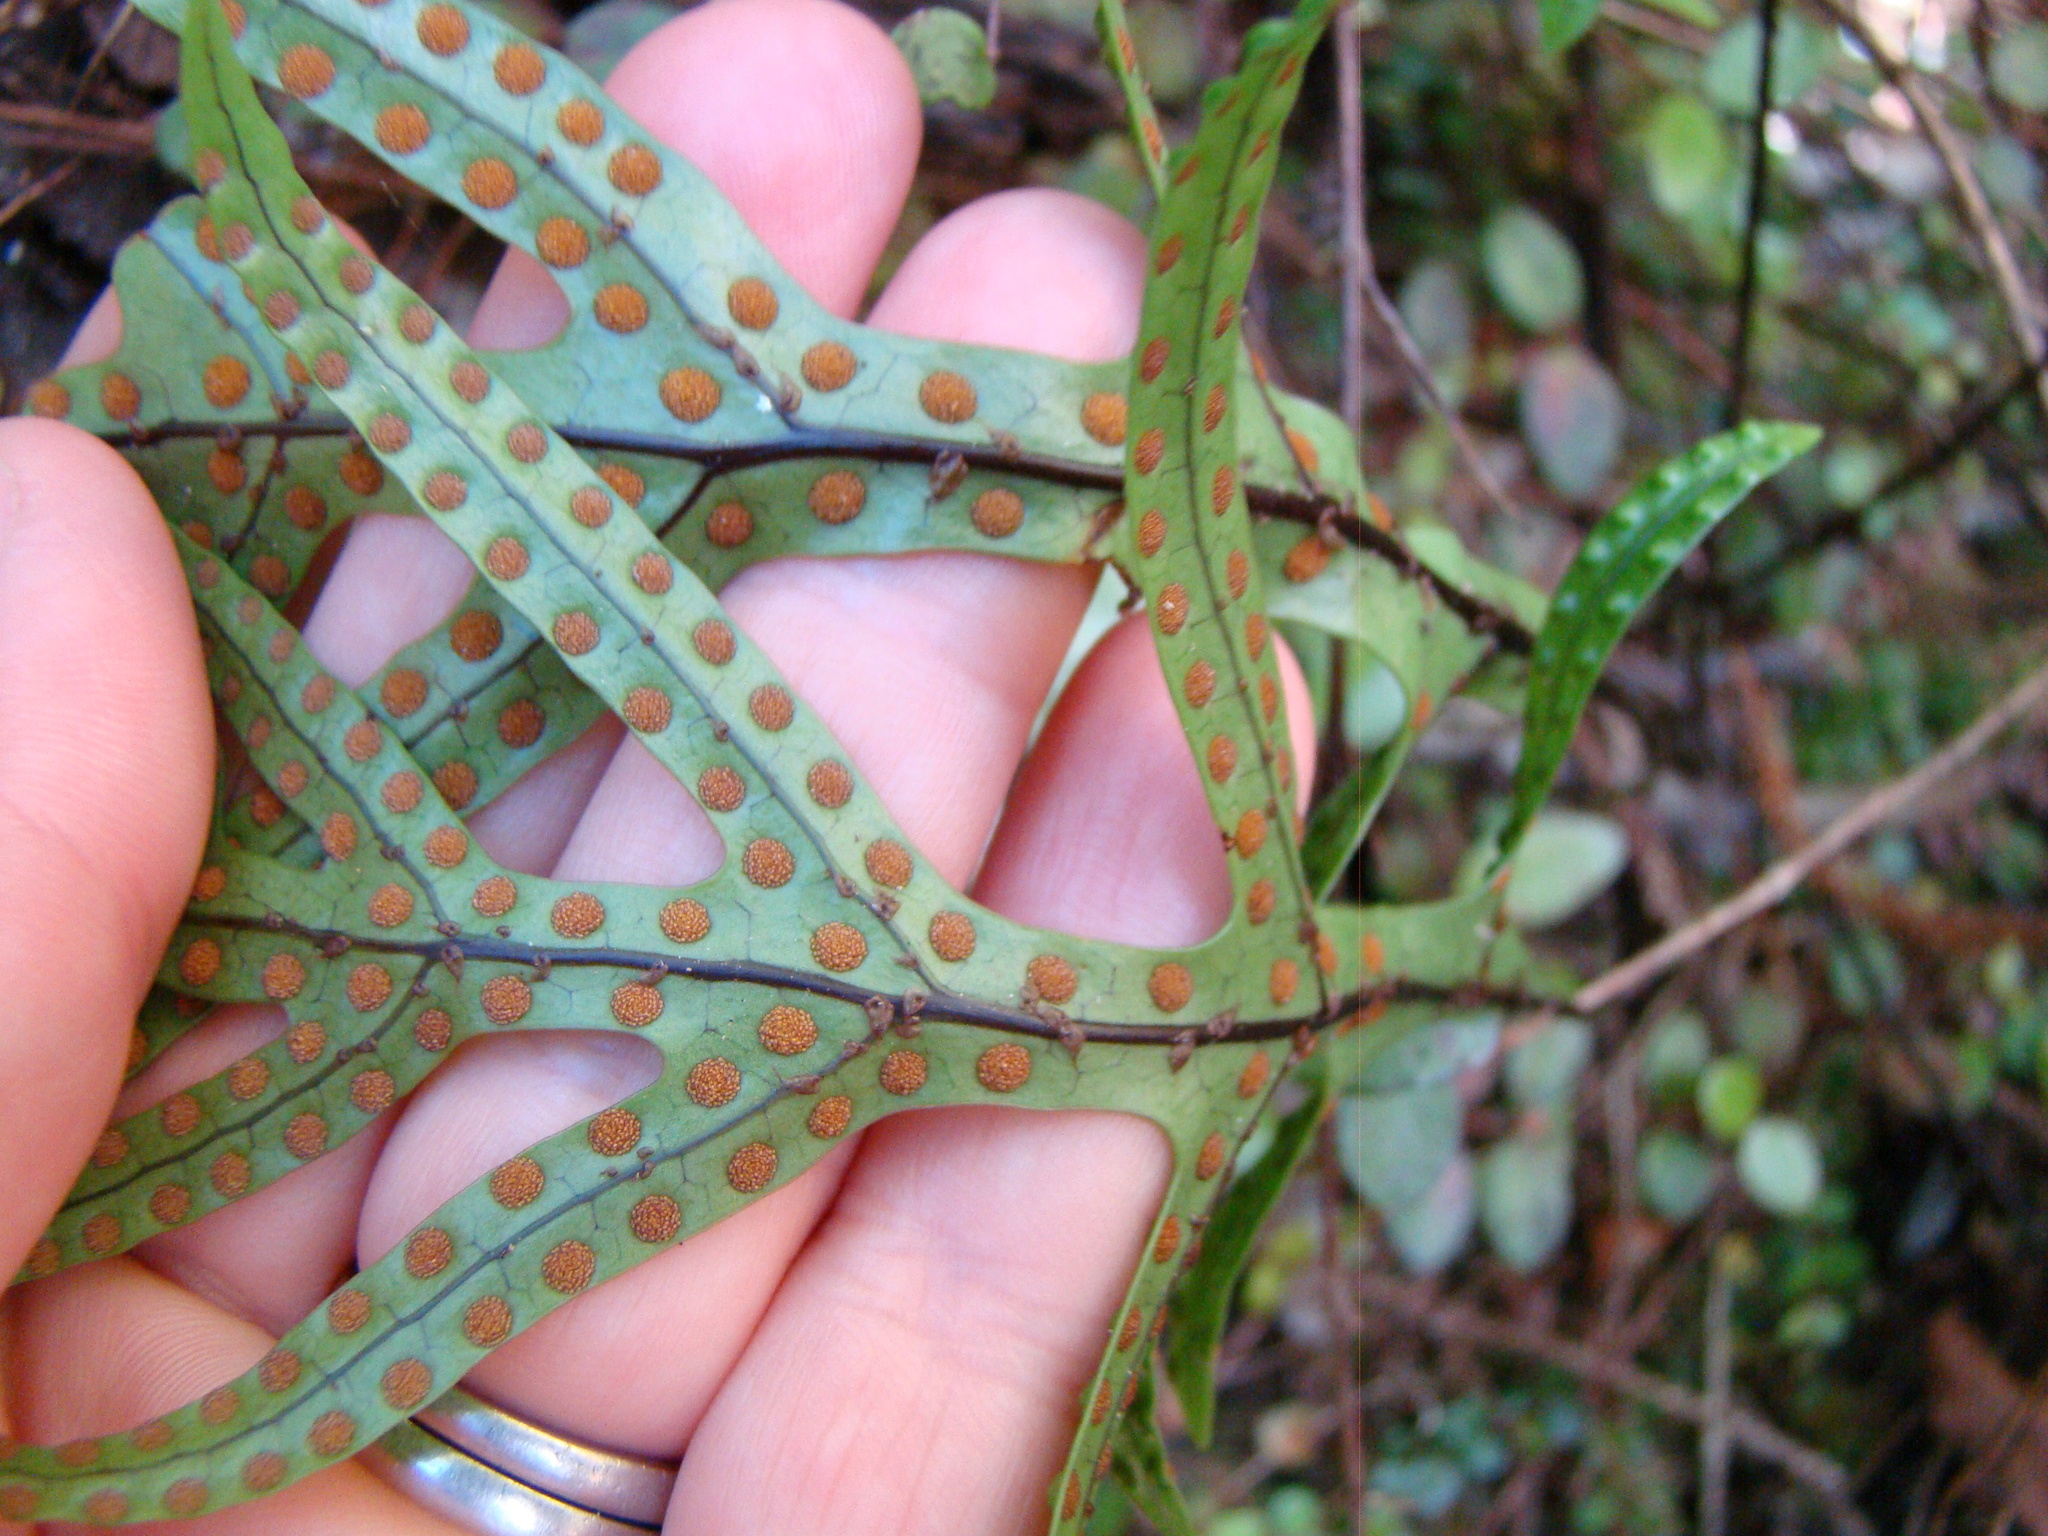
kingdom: Plantae
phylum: Tracheophyta
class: Polypodiopsida
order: Polypodiales
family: Polypodiaceae
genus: Lecanopteris
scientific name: Lecanopteris pustulata
